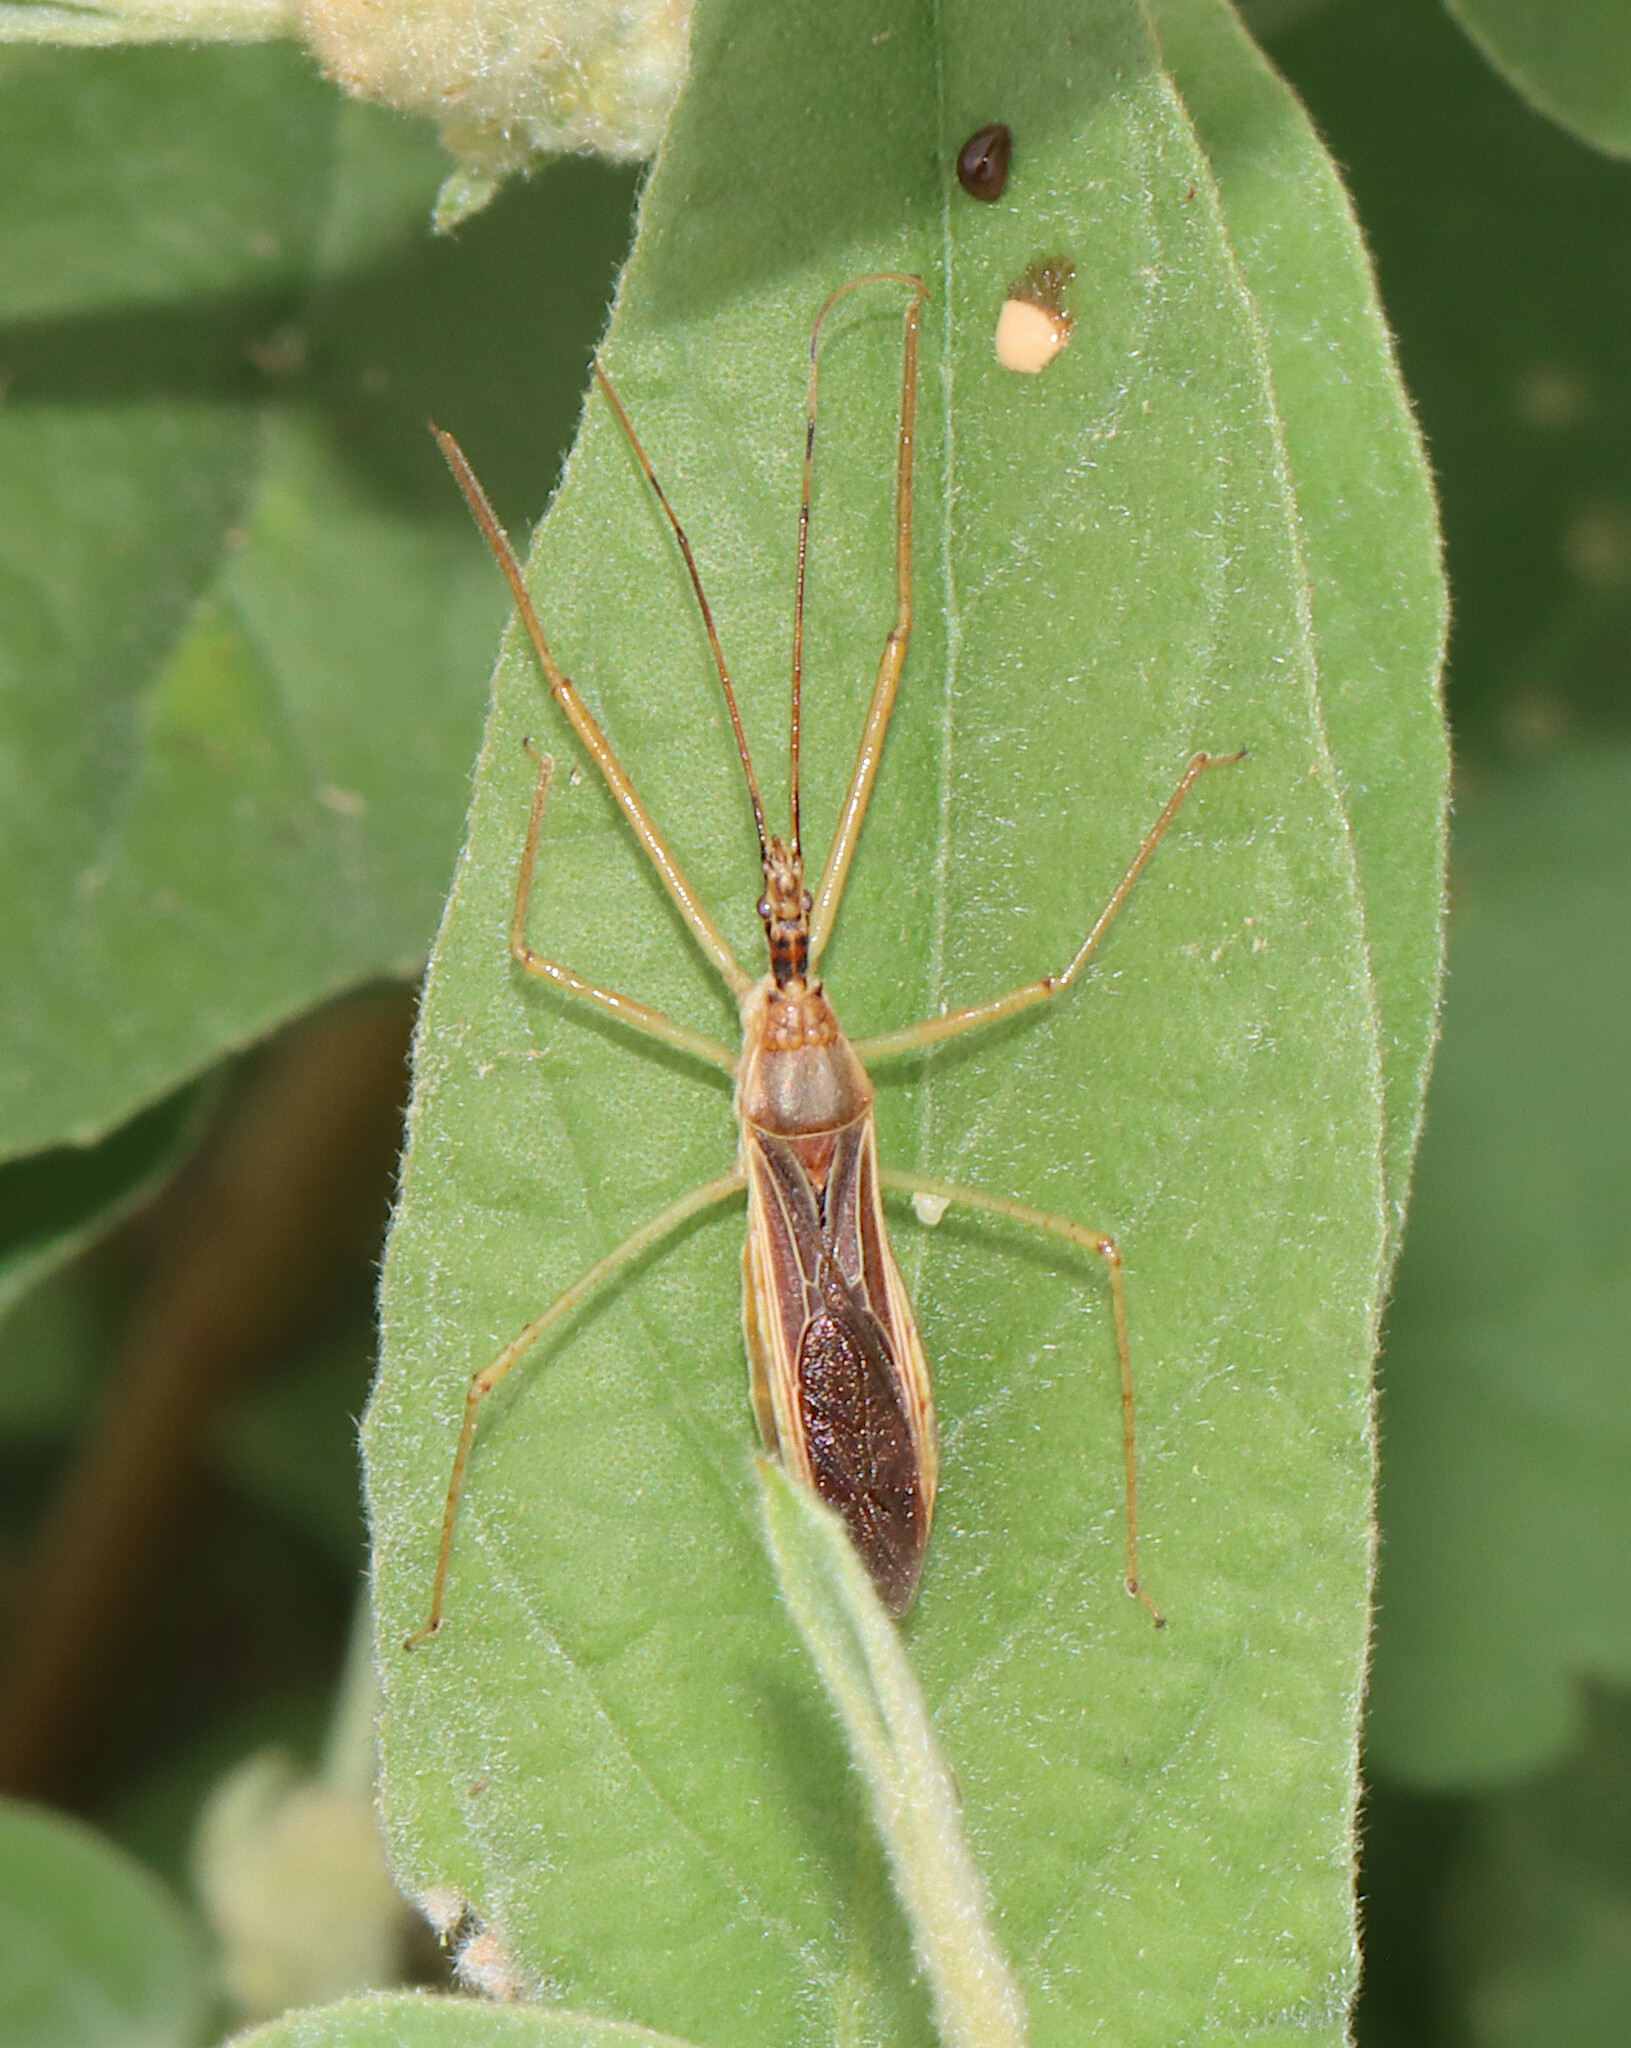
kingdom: Animalia
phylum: Arthropoda
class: Insecta
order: Hemiptera
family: Reduviidae
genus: Zelus
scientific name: Zelus cervicalis
